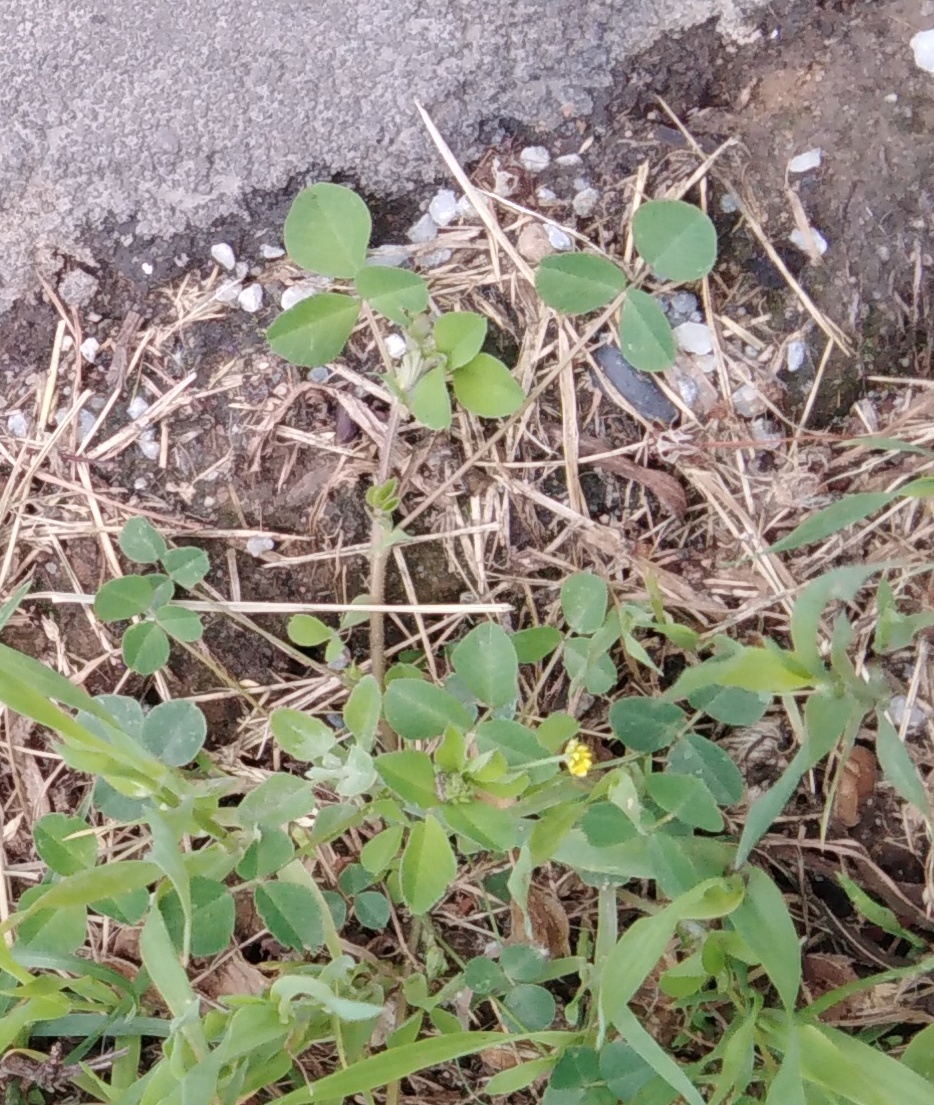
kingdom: Plantae
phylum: Tracheophyta
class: Magnoliopsida
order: Fabales
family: Fabaceae
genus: Medicago
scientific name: Medicago lupulina
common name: Black medick
